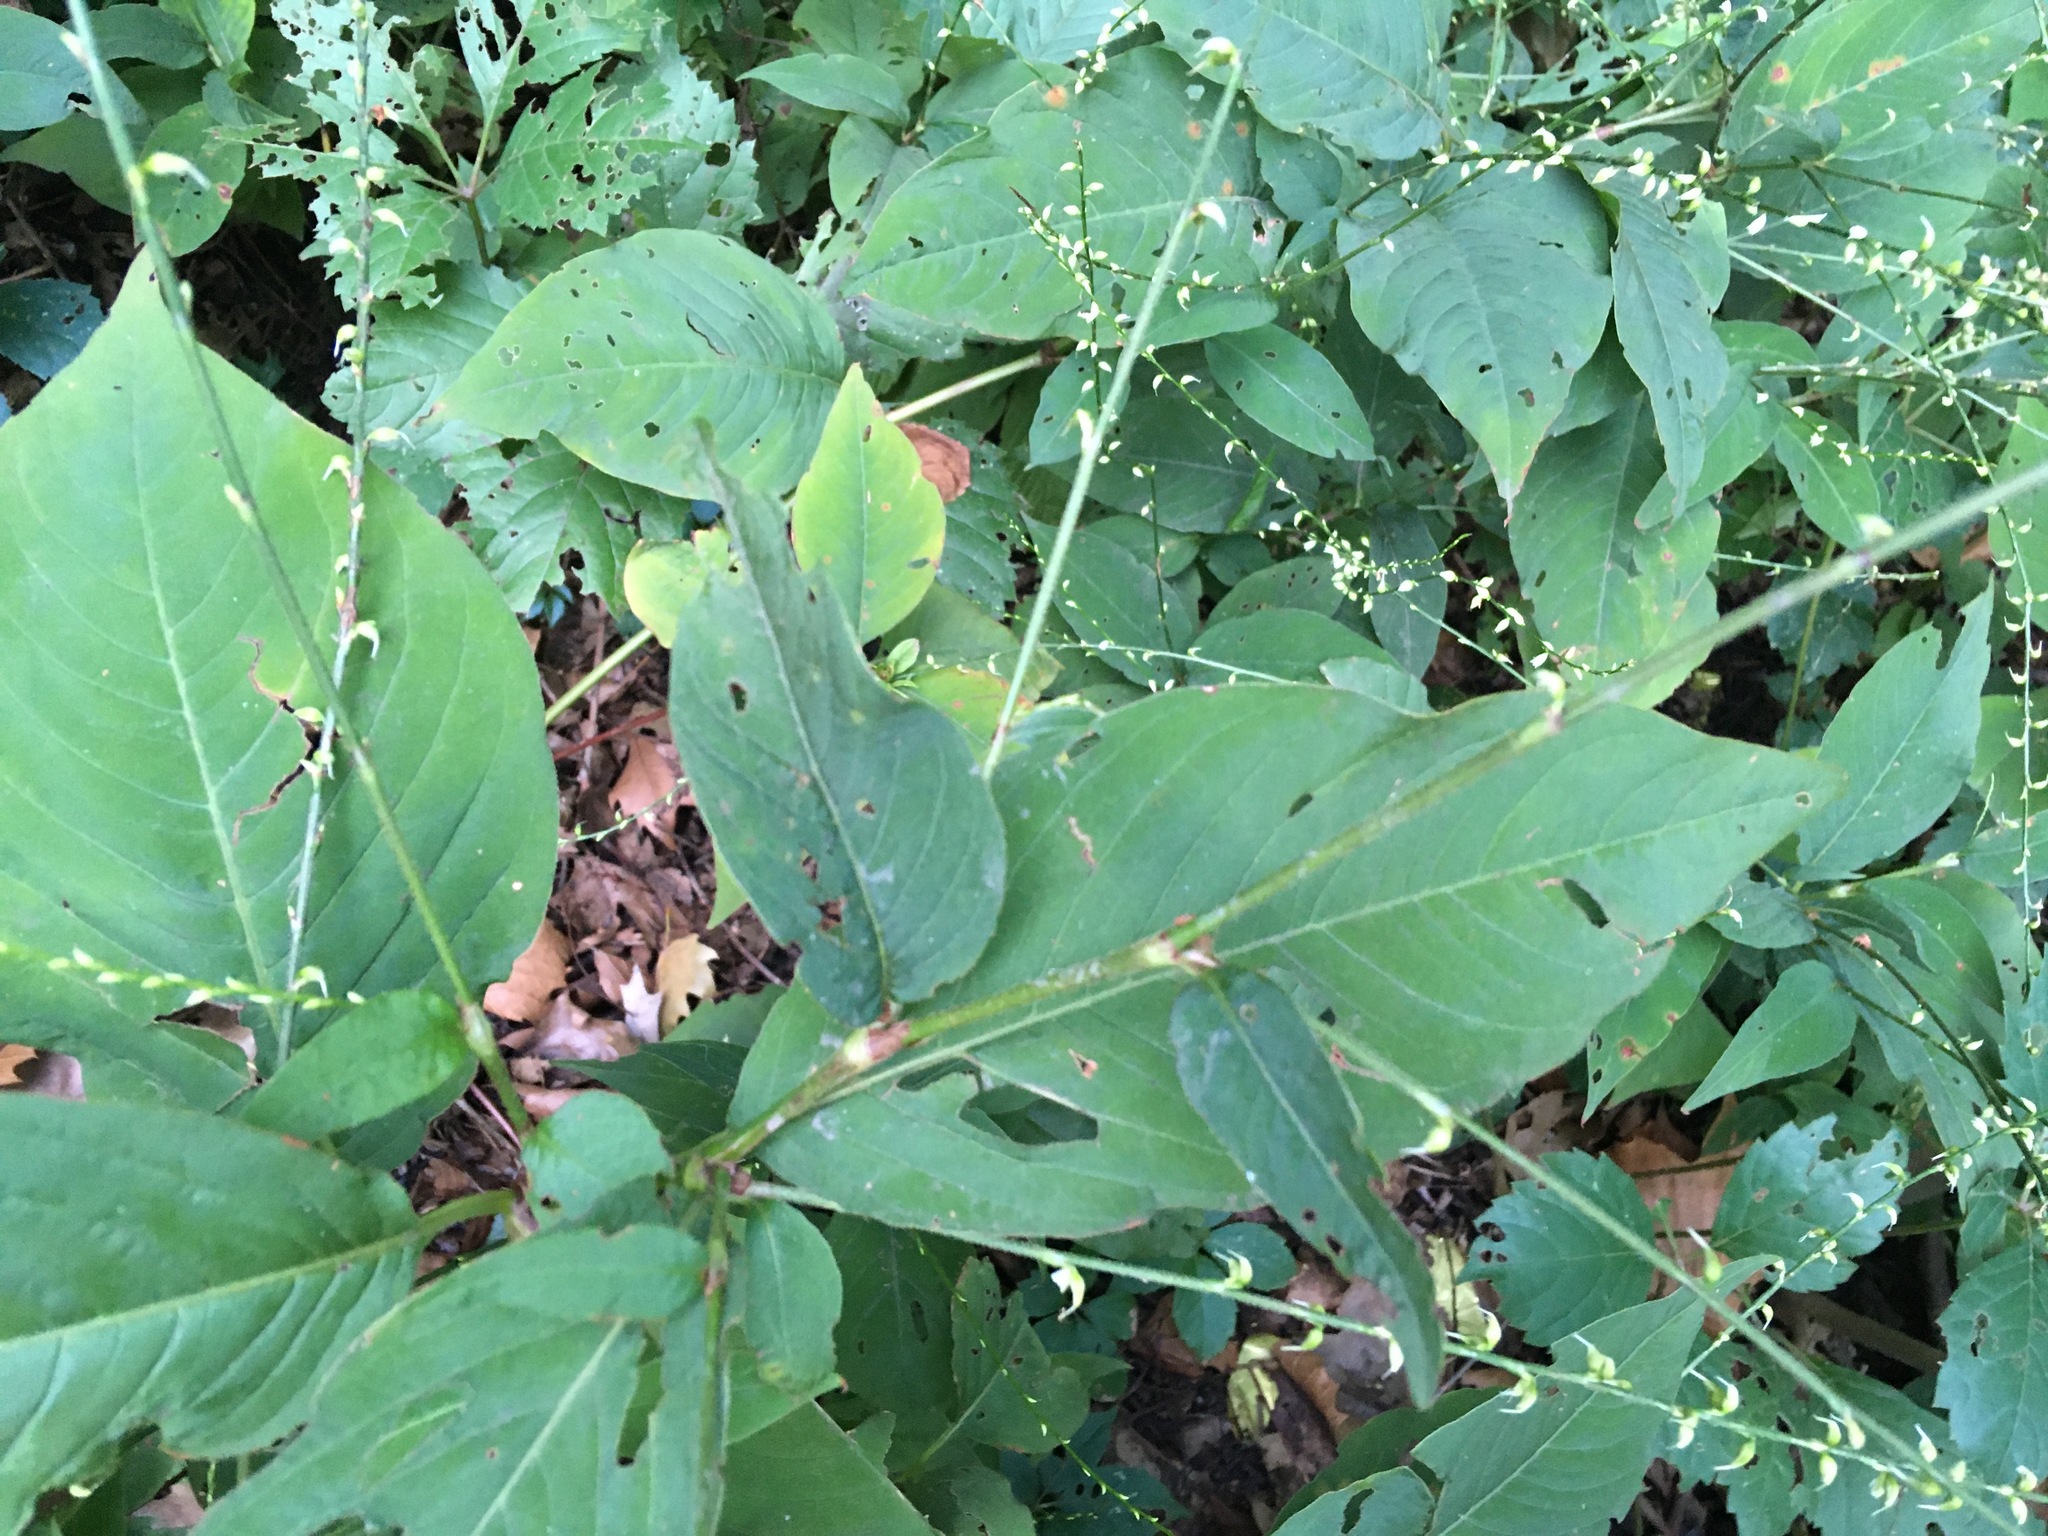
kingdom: Plantae
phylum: Tracheophyta
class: Magnoliopsida
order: Caryophyllales
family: Polygonaceae
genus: Persicaria
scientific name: Persicaria virginiana
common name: Jumpseed
